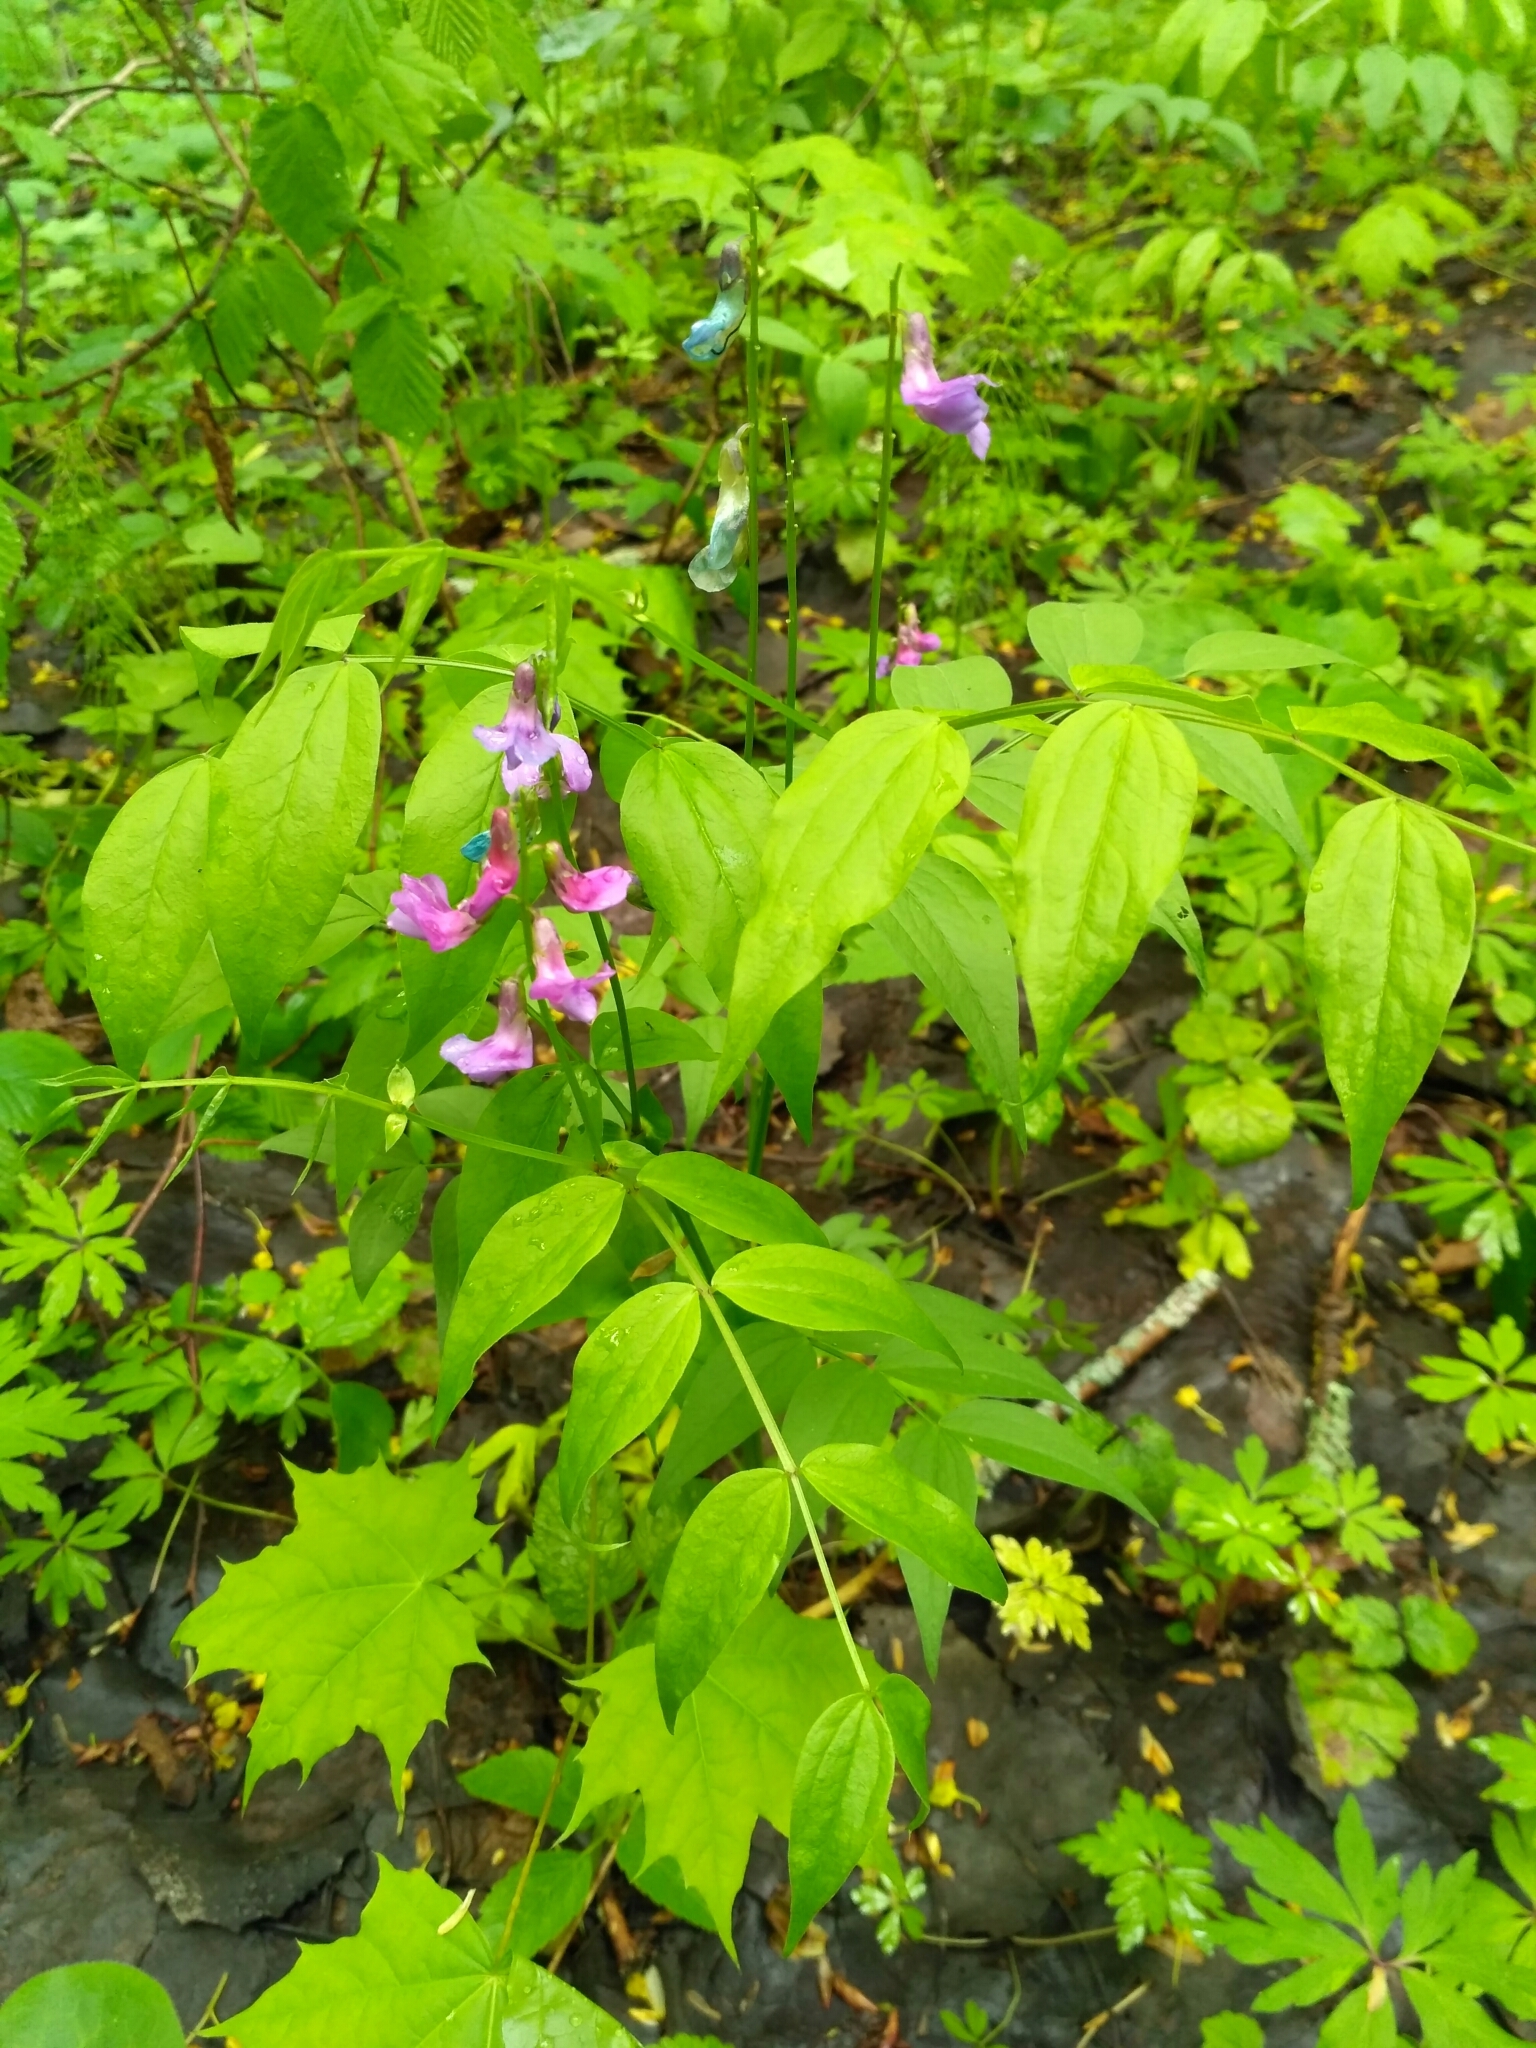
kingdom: Plantae
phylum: Tracheophyta
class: Magnoliopsida
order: Fabales
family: Fabaceae
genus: Lathyrus
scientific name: Lathyrus vernus
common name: Spring pea
